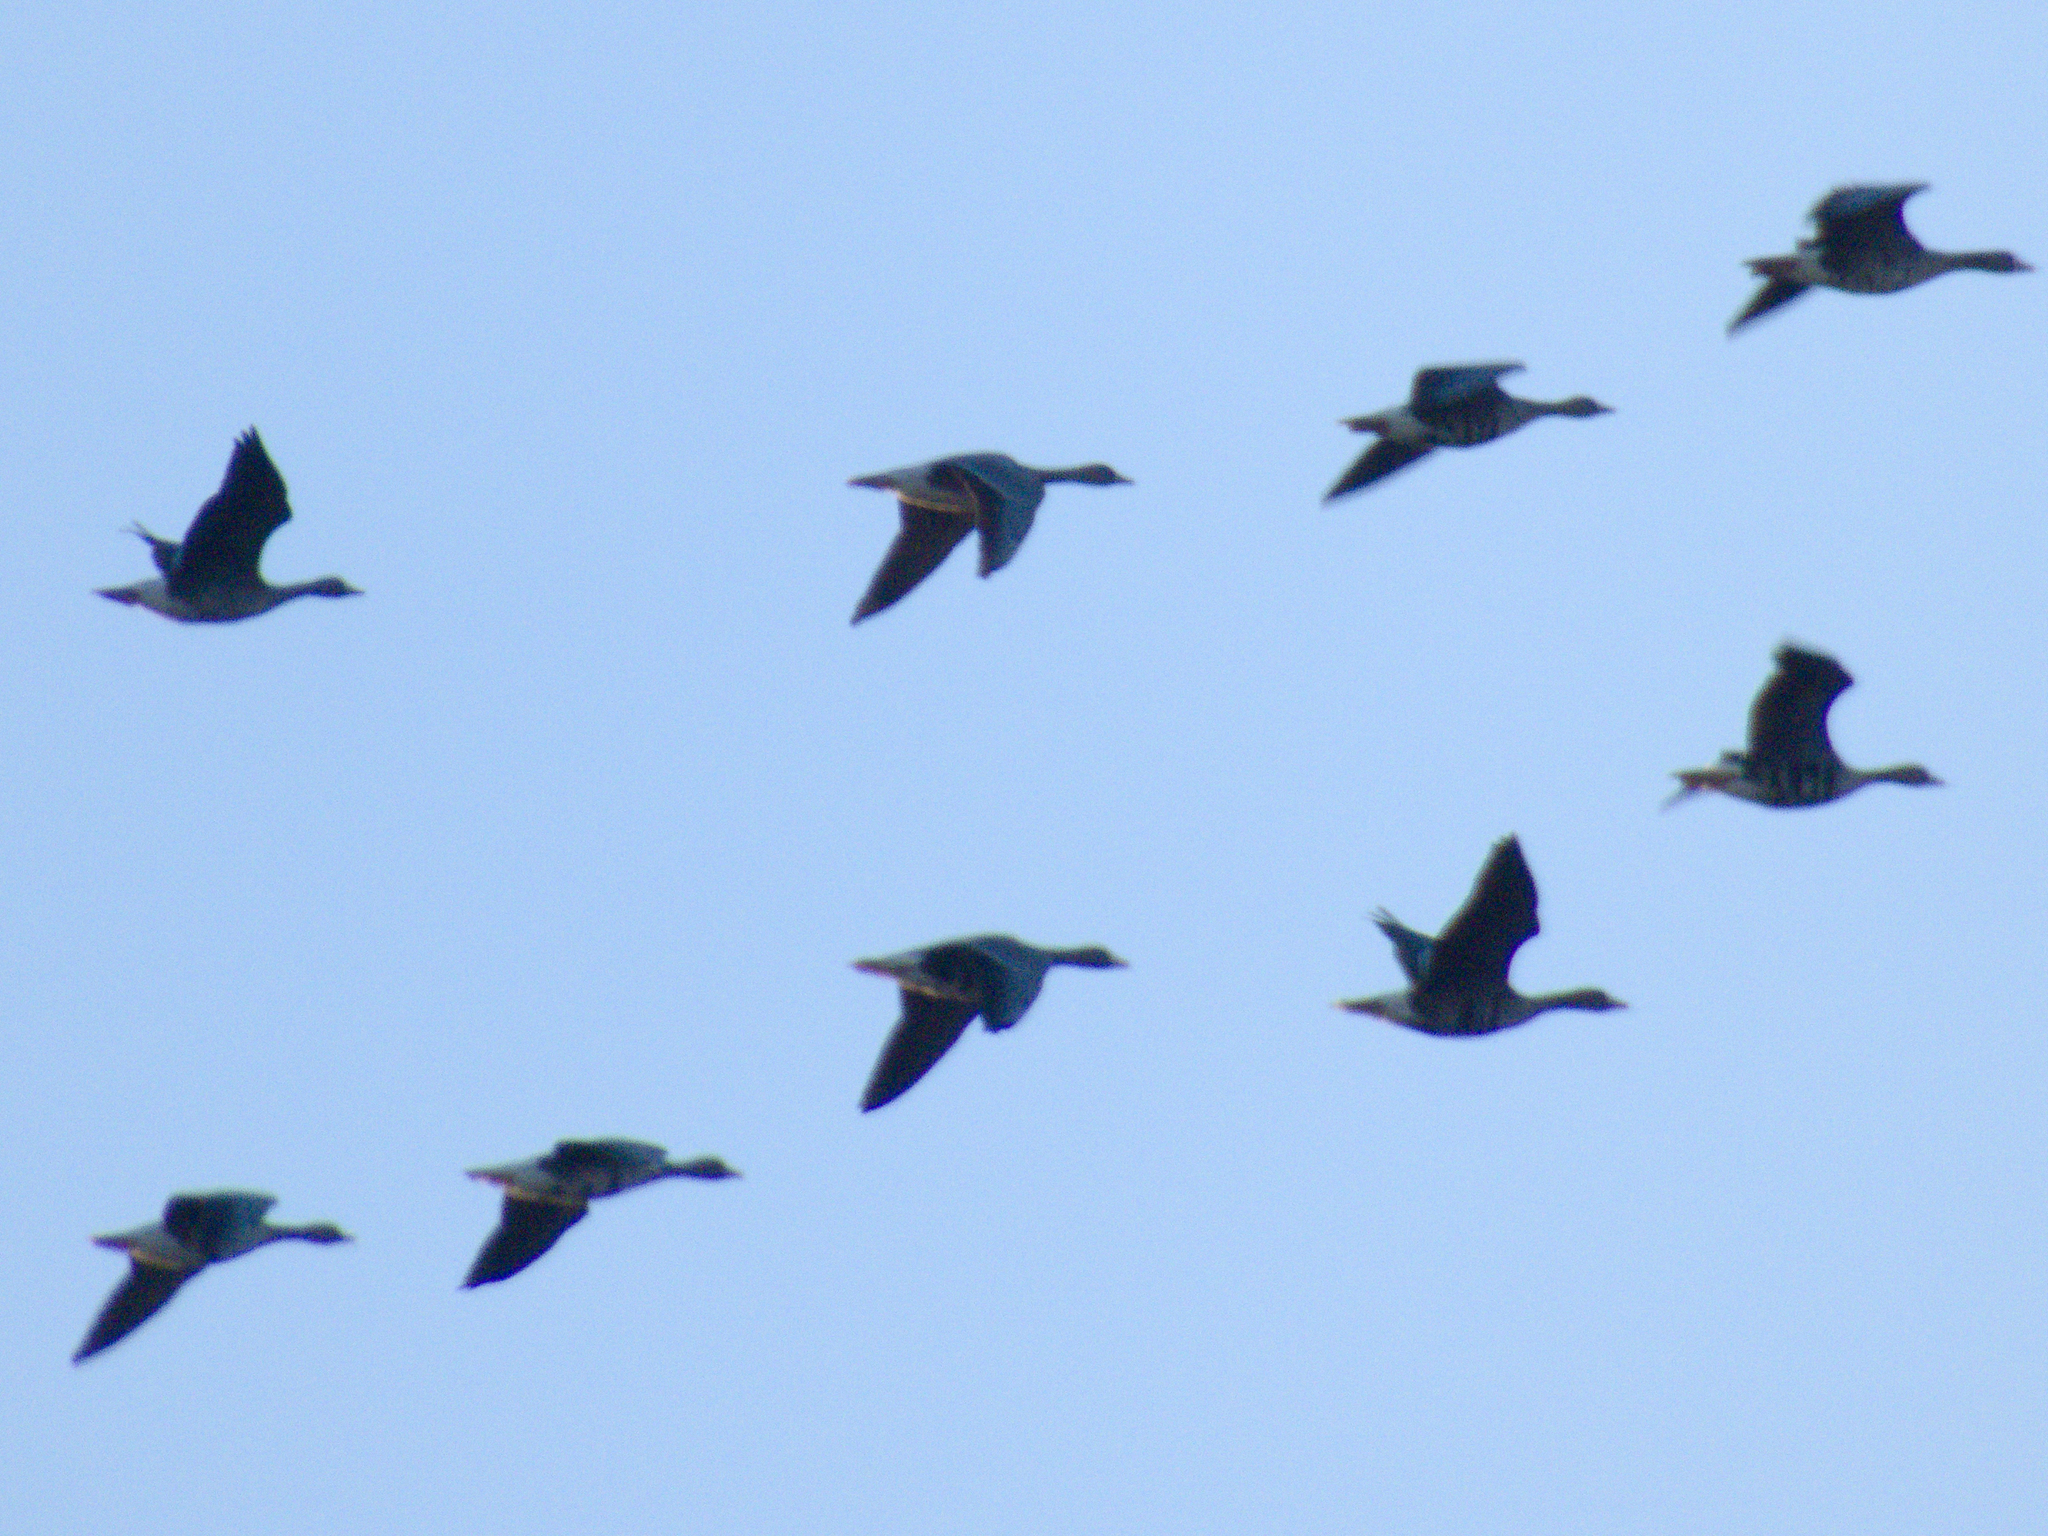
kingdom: Animalia
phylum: Chordata
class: Aves
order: Anseriformes
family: Anatidae
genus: Anser
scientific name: Anser albifrons
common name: Greater white-fronted goose
